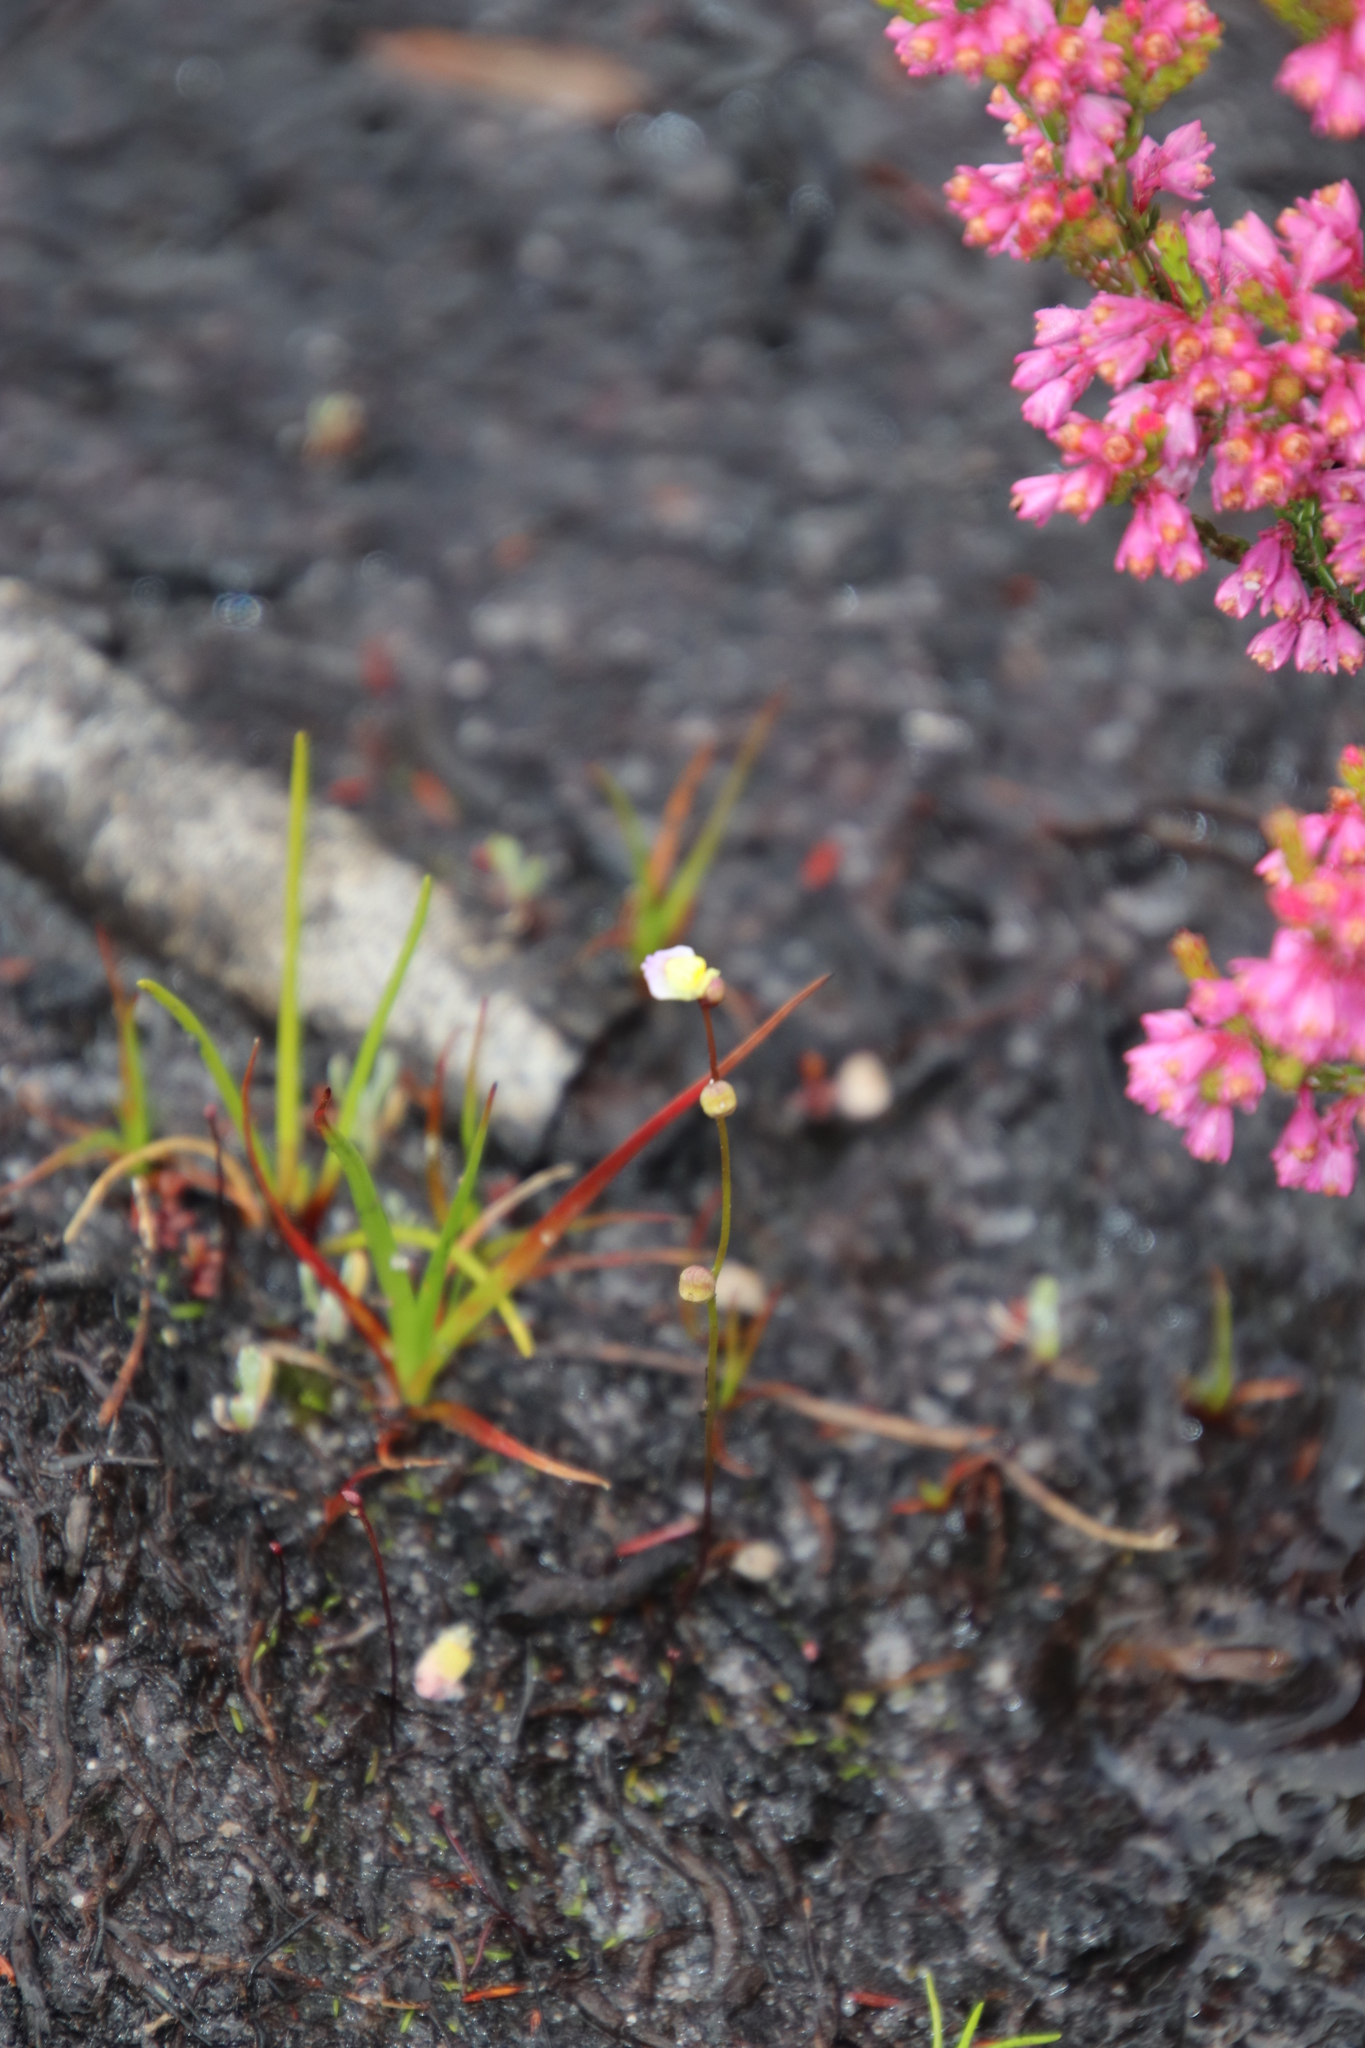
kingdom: Plantae
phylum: Tracheophyta
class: Magnoliopsida
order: Lamiales
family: Lentibulariaceae
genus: Utricularia
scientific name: Utricularia bisquamata
